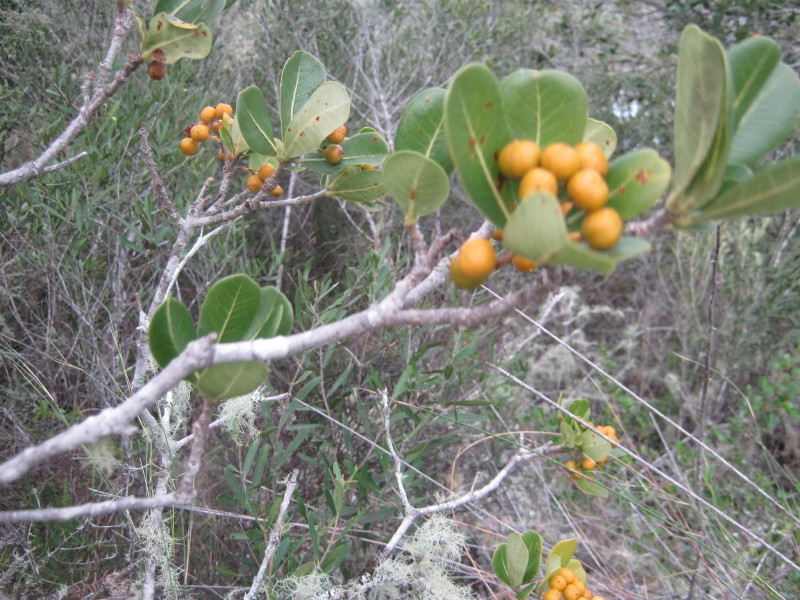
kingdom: Plantae
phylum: Tracheophyta
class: Magnoliopsida
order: Apiales
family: Pittosporaceae
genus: Pittosporum
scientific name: Pittosporum viridiflorum
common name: Cape cheesewood
